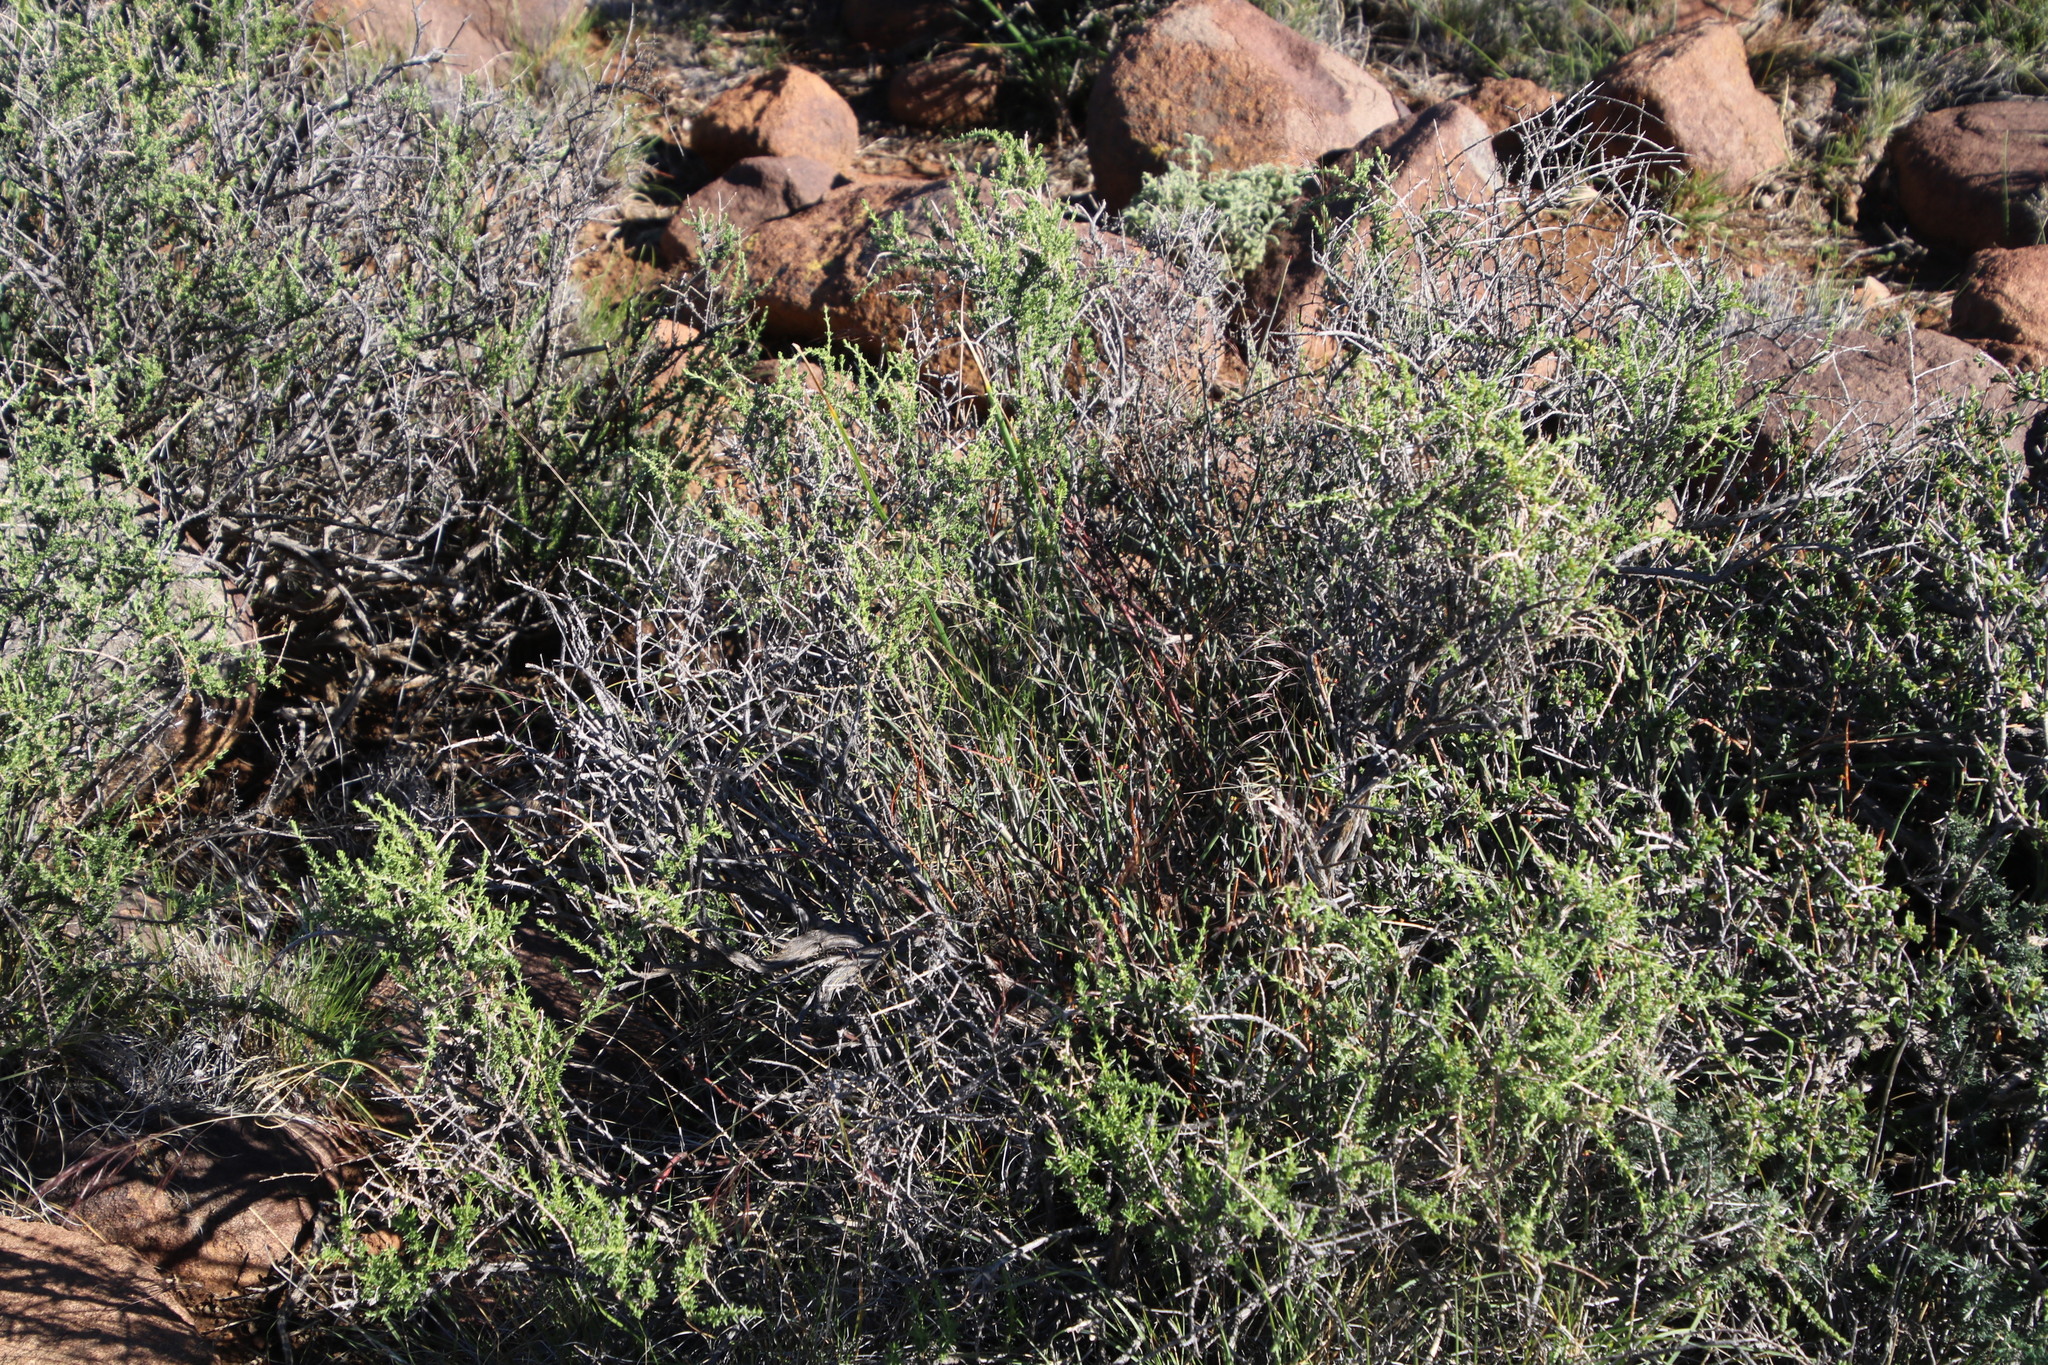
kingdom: Plantae
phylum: Tracheophyta
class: Liliopsida
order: Poales
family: Poaceae
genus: Aristida
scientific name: Aristida adscensionis
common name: Sixweeks threeawn
